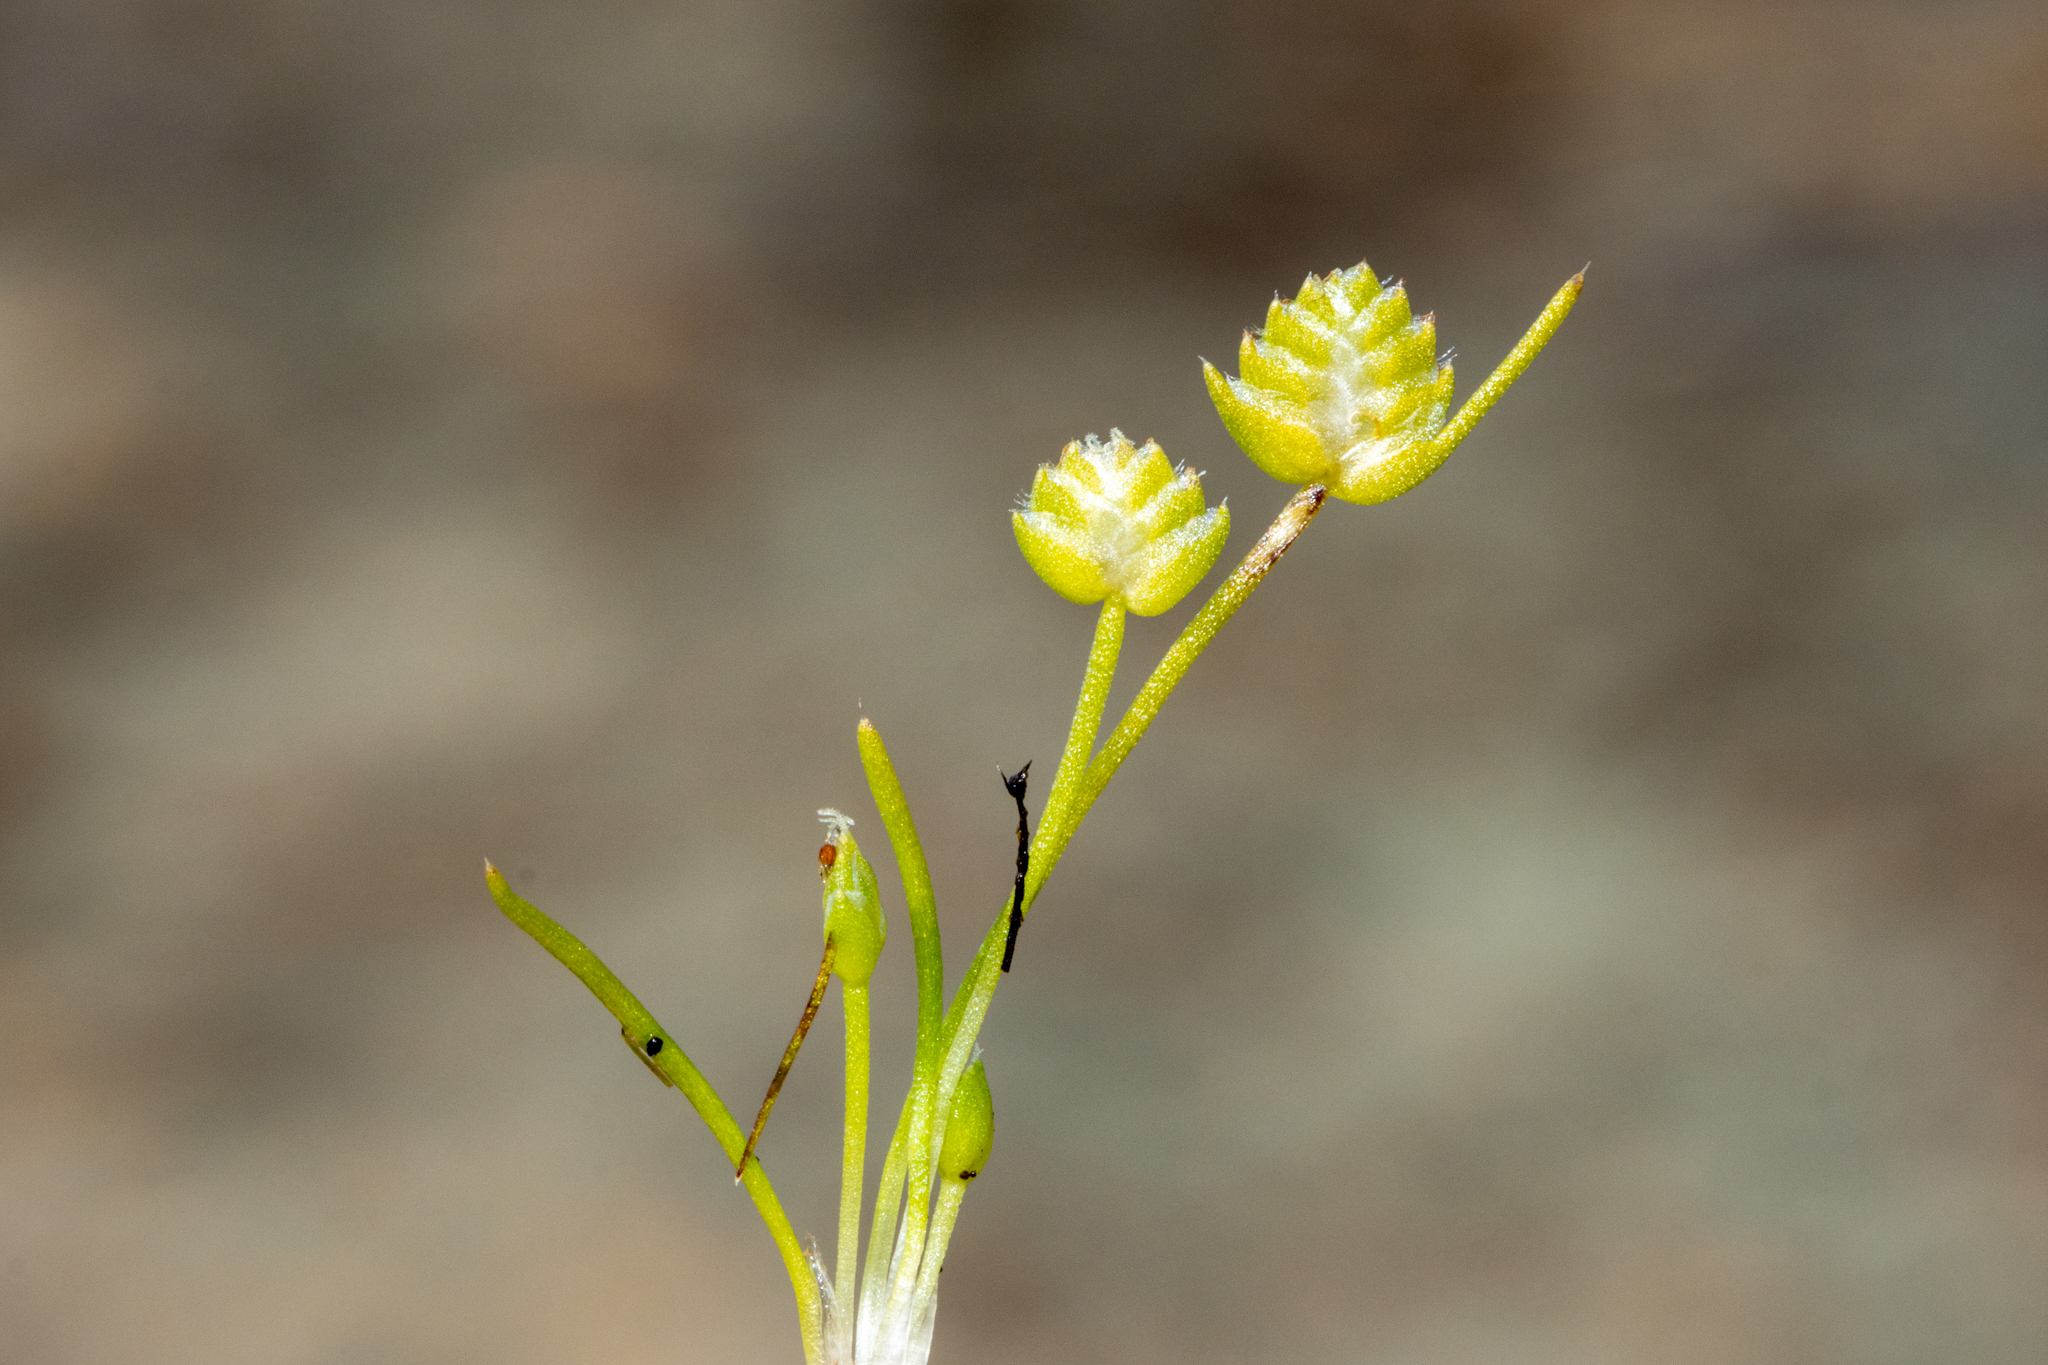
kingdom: Plantae
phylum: Tracheophyta
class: Liliopsida
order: Poales
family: Restionaceae
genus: Aphelia
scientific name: Aphelia brizula
